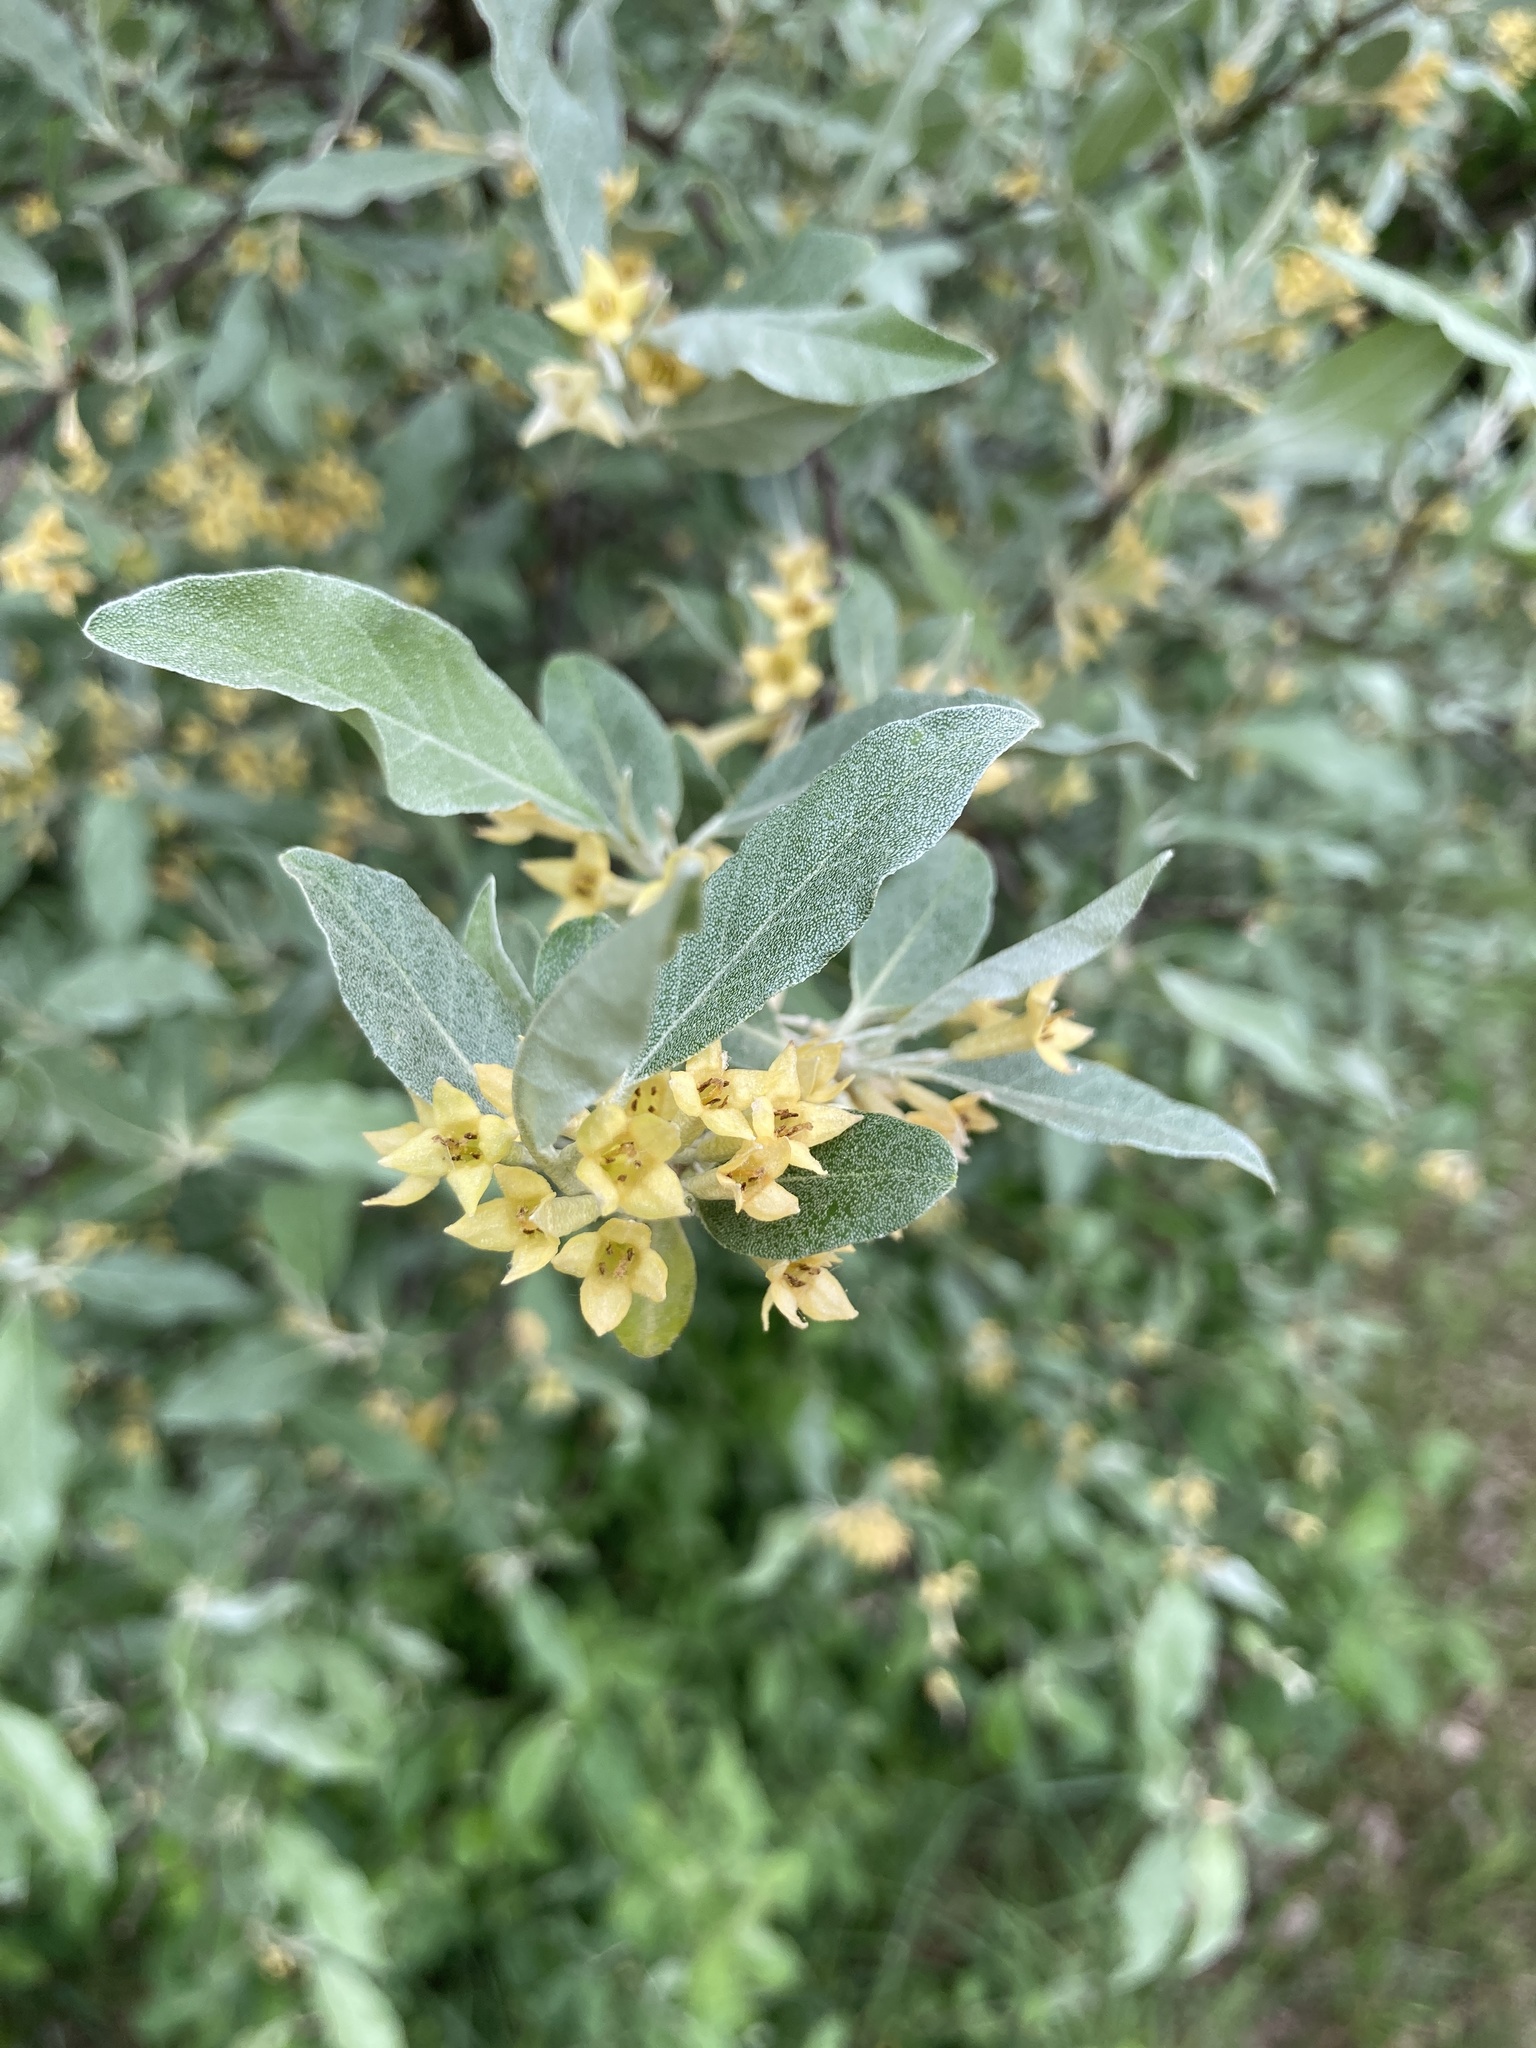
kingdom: Plantae
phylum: Tracheophyta
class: Magnoliopsida
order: Rosales
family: Elaeagnaceae
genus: Elaeagnus
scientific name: Elaeagnus umbellata
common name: Autumn olive
